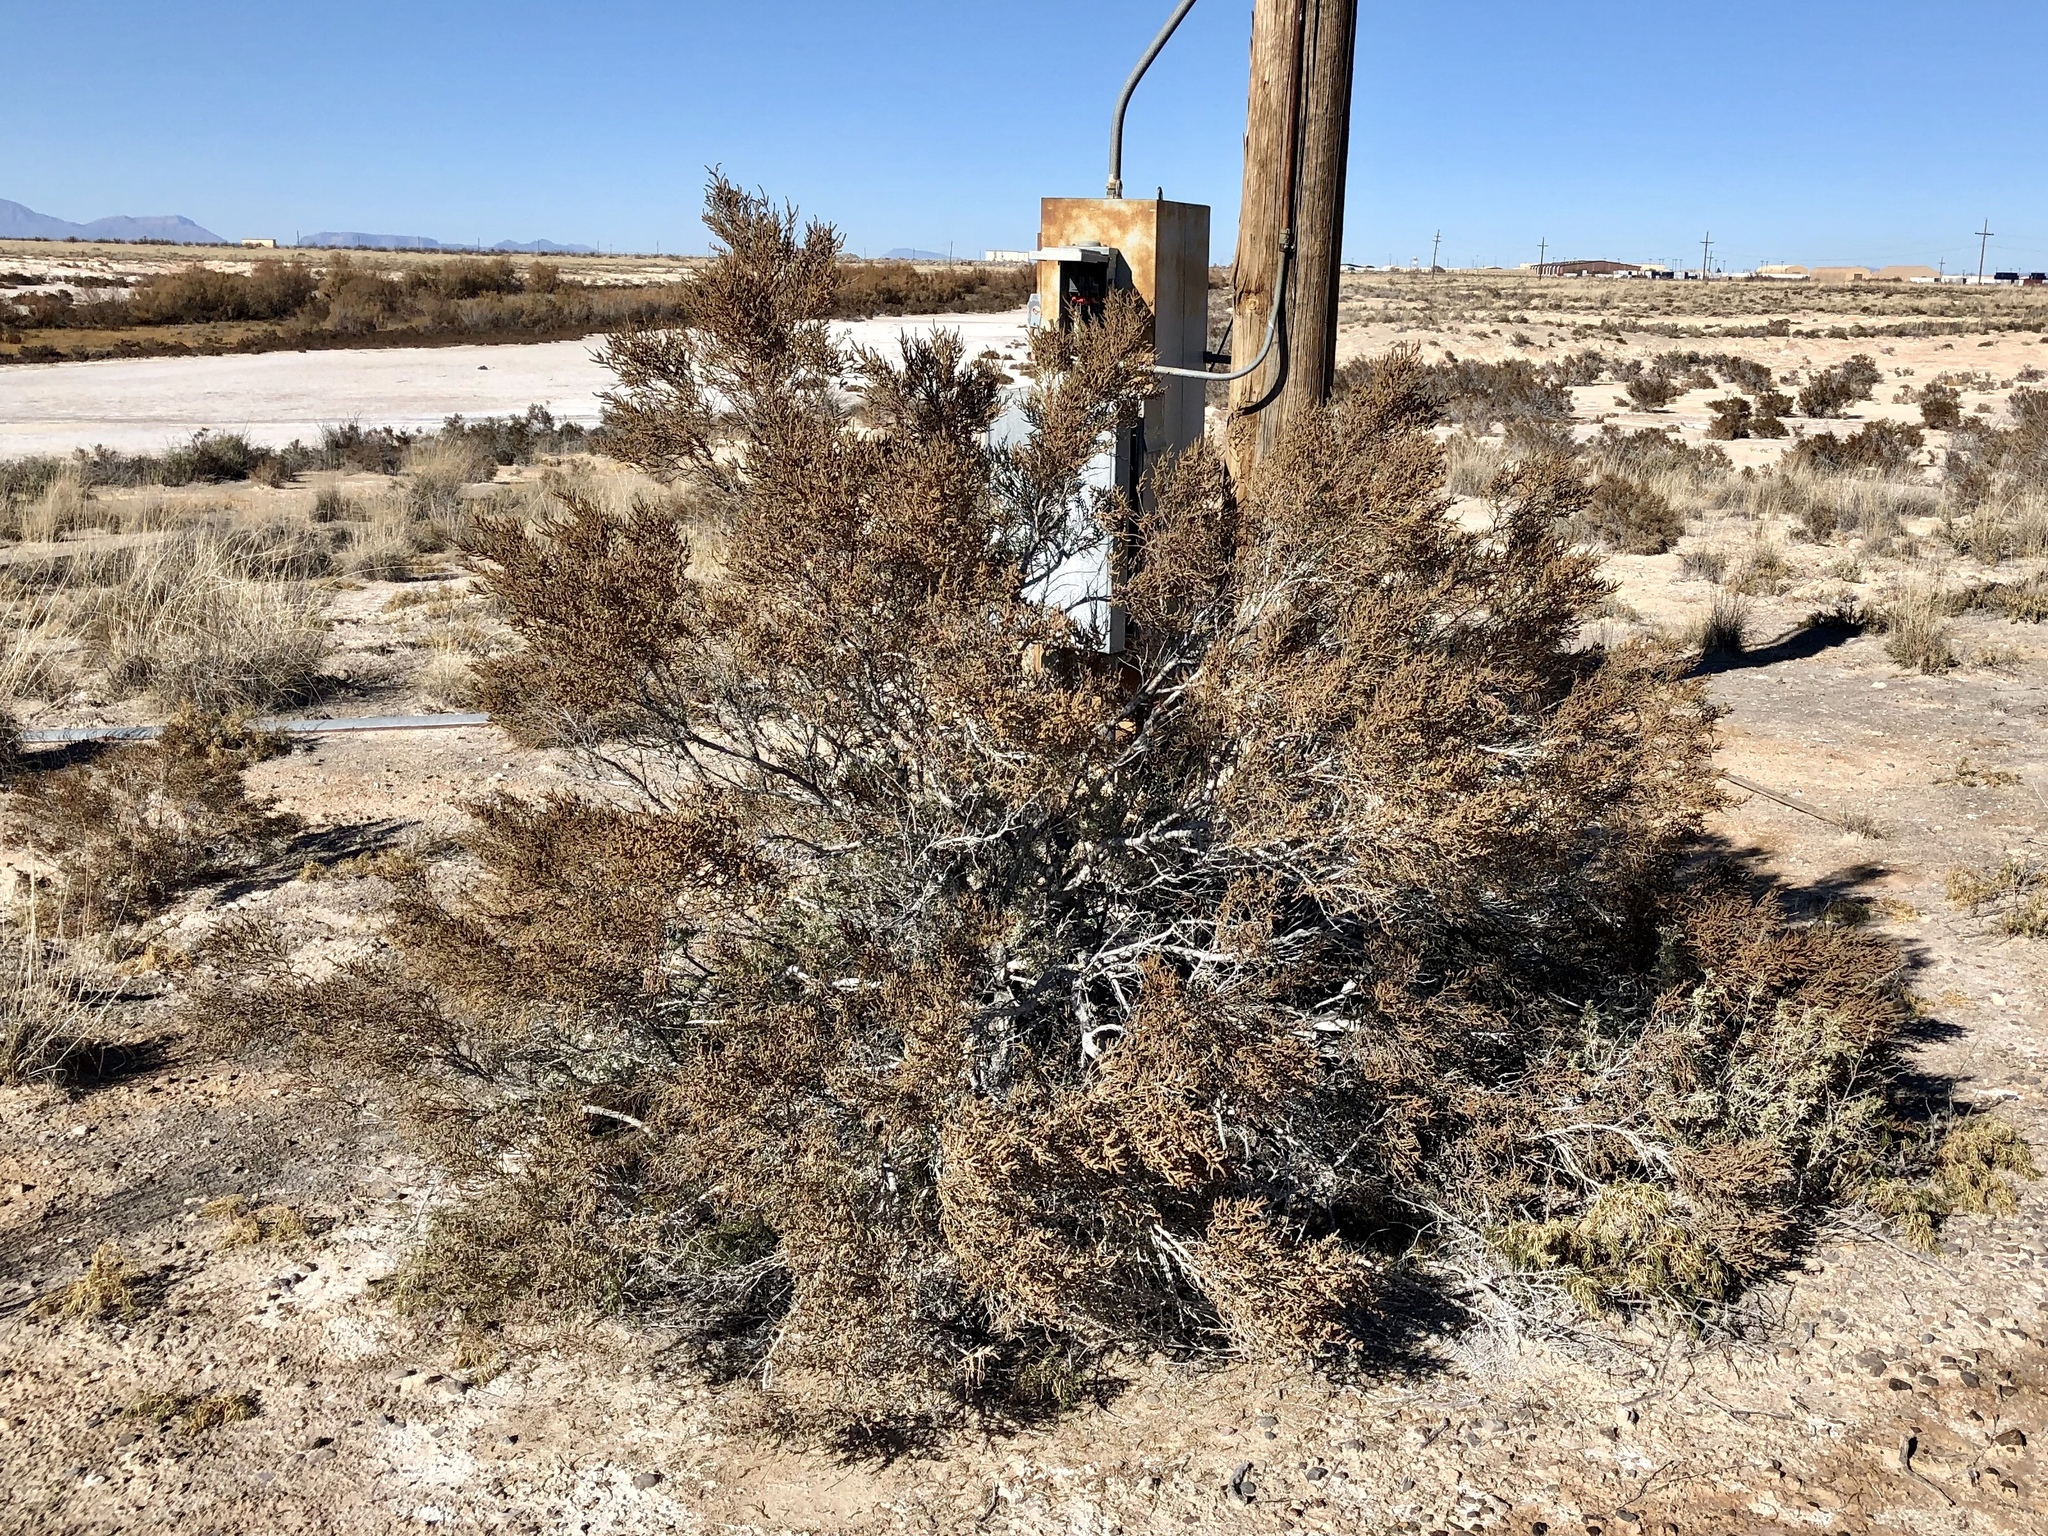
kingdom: Plantae
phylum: Tracheophyta
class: Magnoliopsida
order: Caryophyllales
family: Amaranthaceae
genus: Allenrolfea
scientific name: Allenrolfea occidentalis
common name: Iodine-bush
